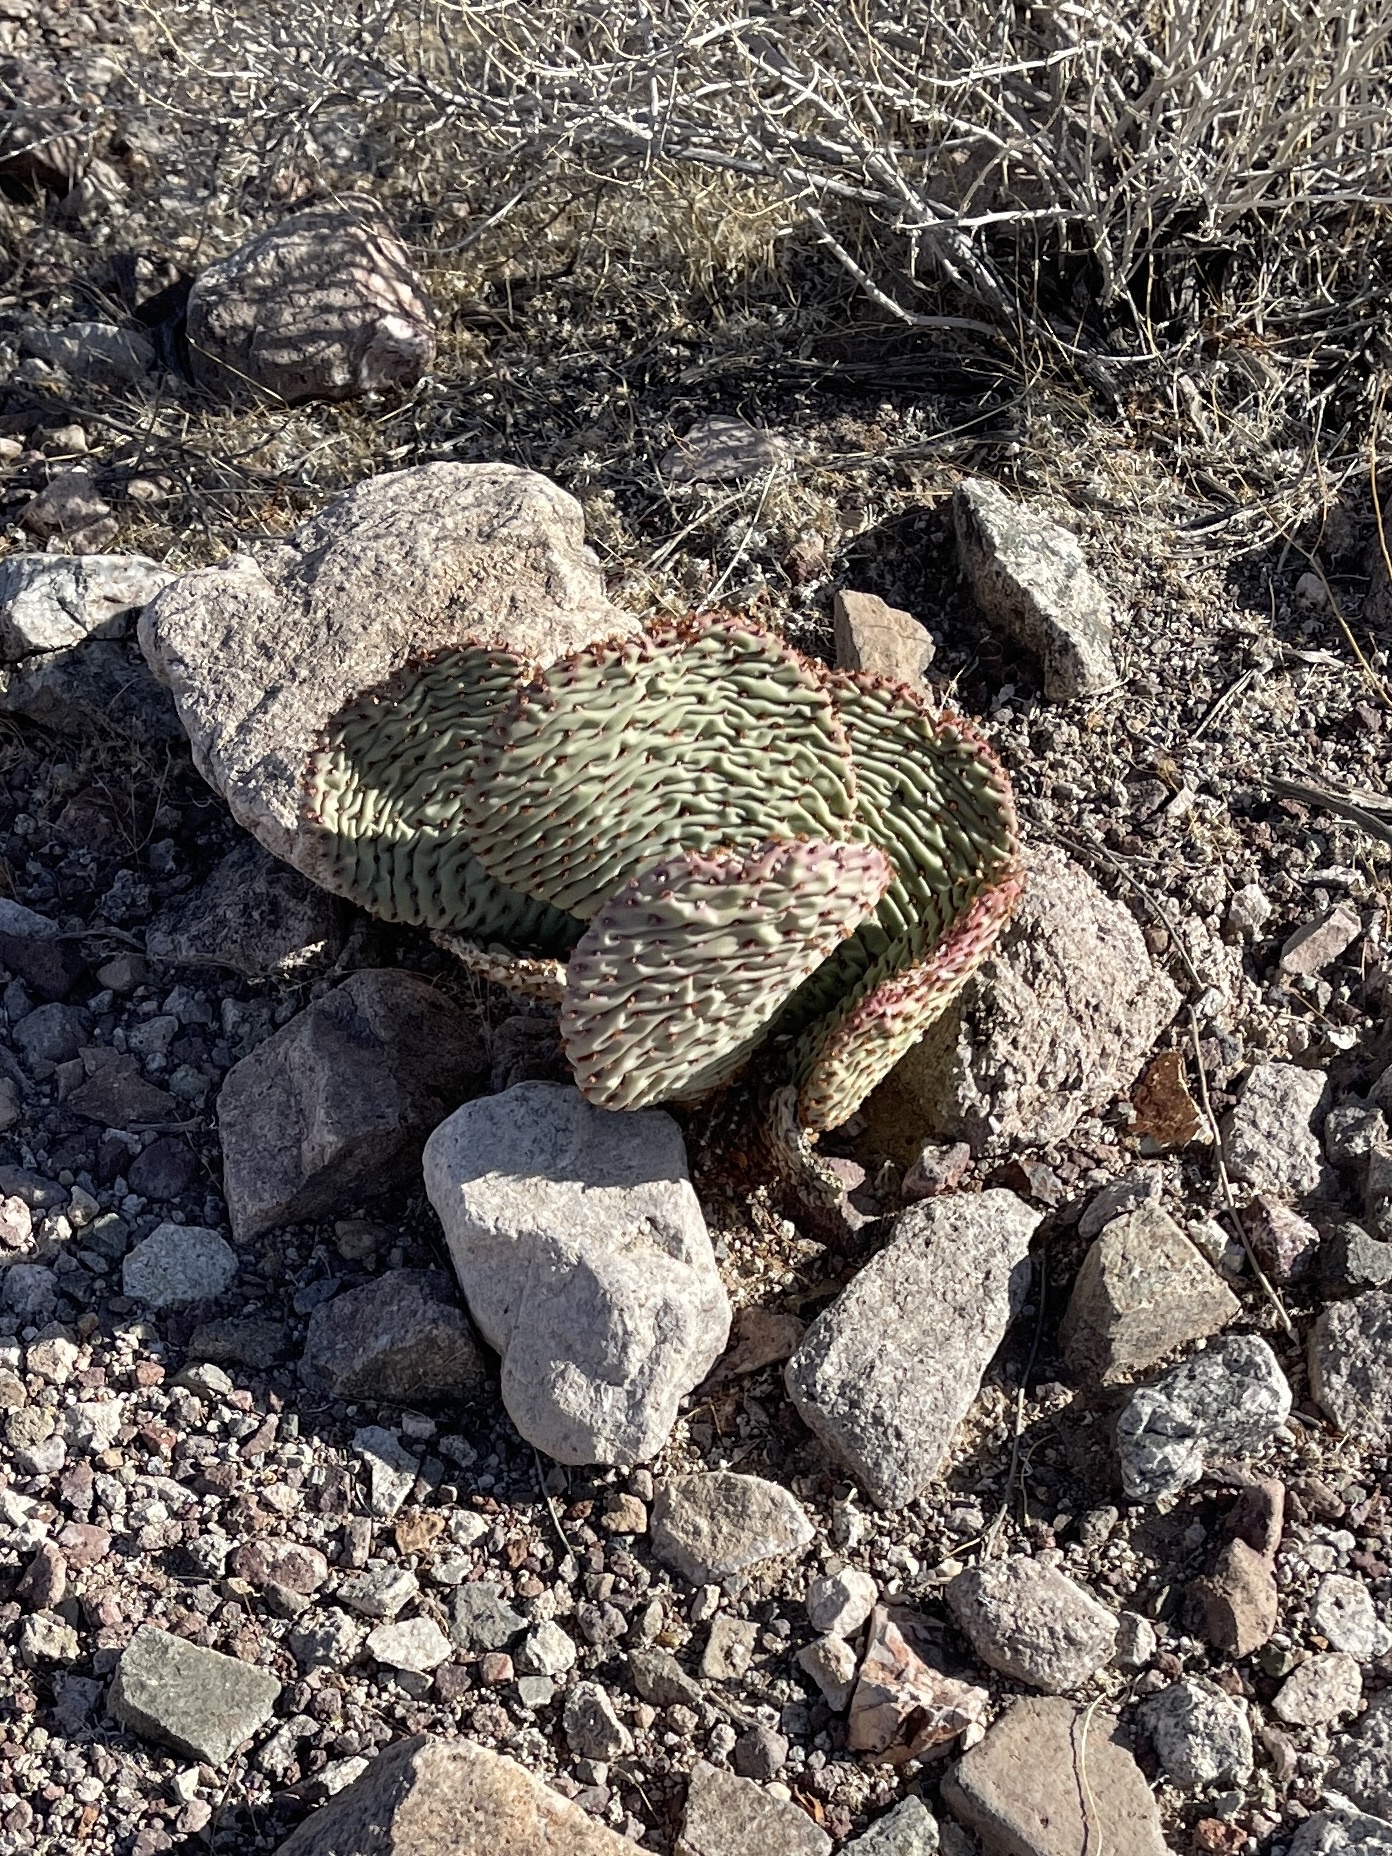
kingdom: Plantae
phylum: Tracheophyta
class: Magnoliopsida
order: Caryophyllales
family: Cactaceae
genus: Opuntia
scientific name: Opuntia basilaris
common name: Beavertail prickly-pear
